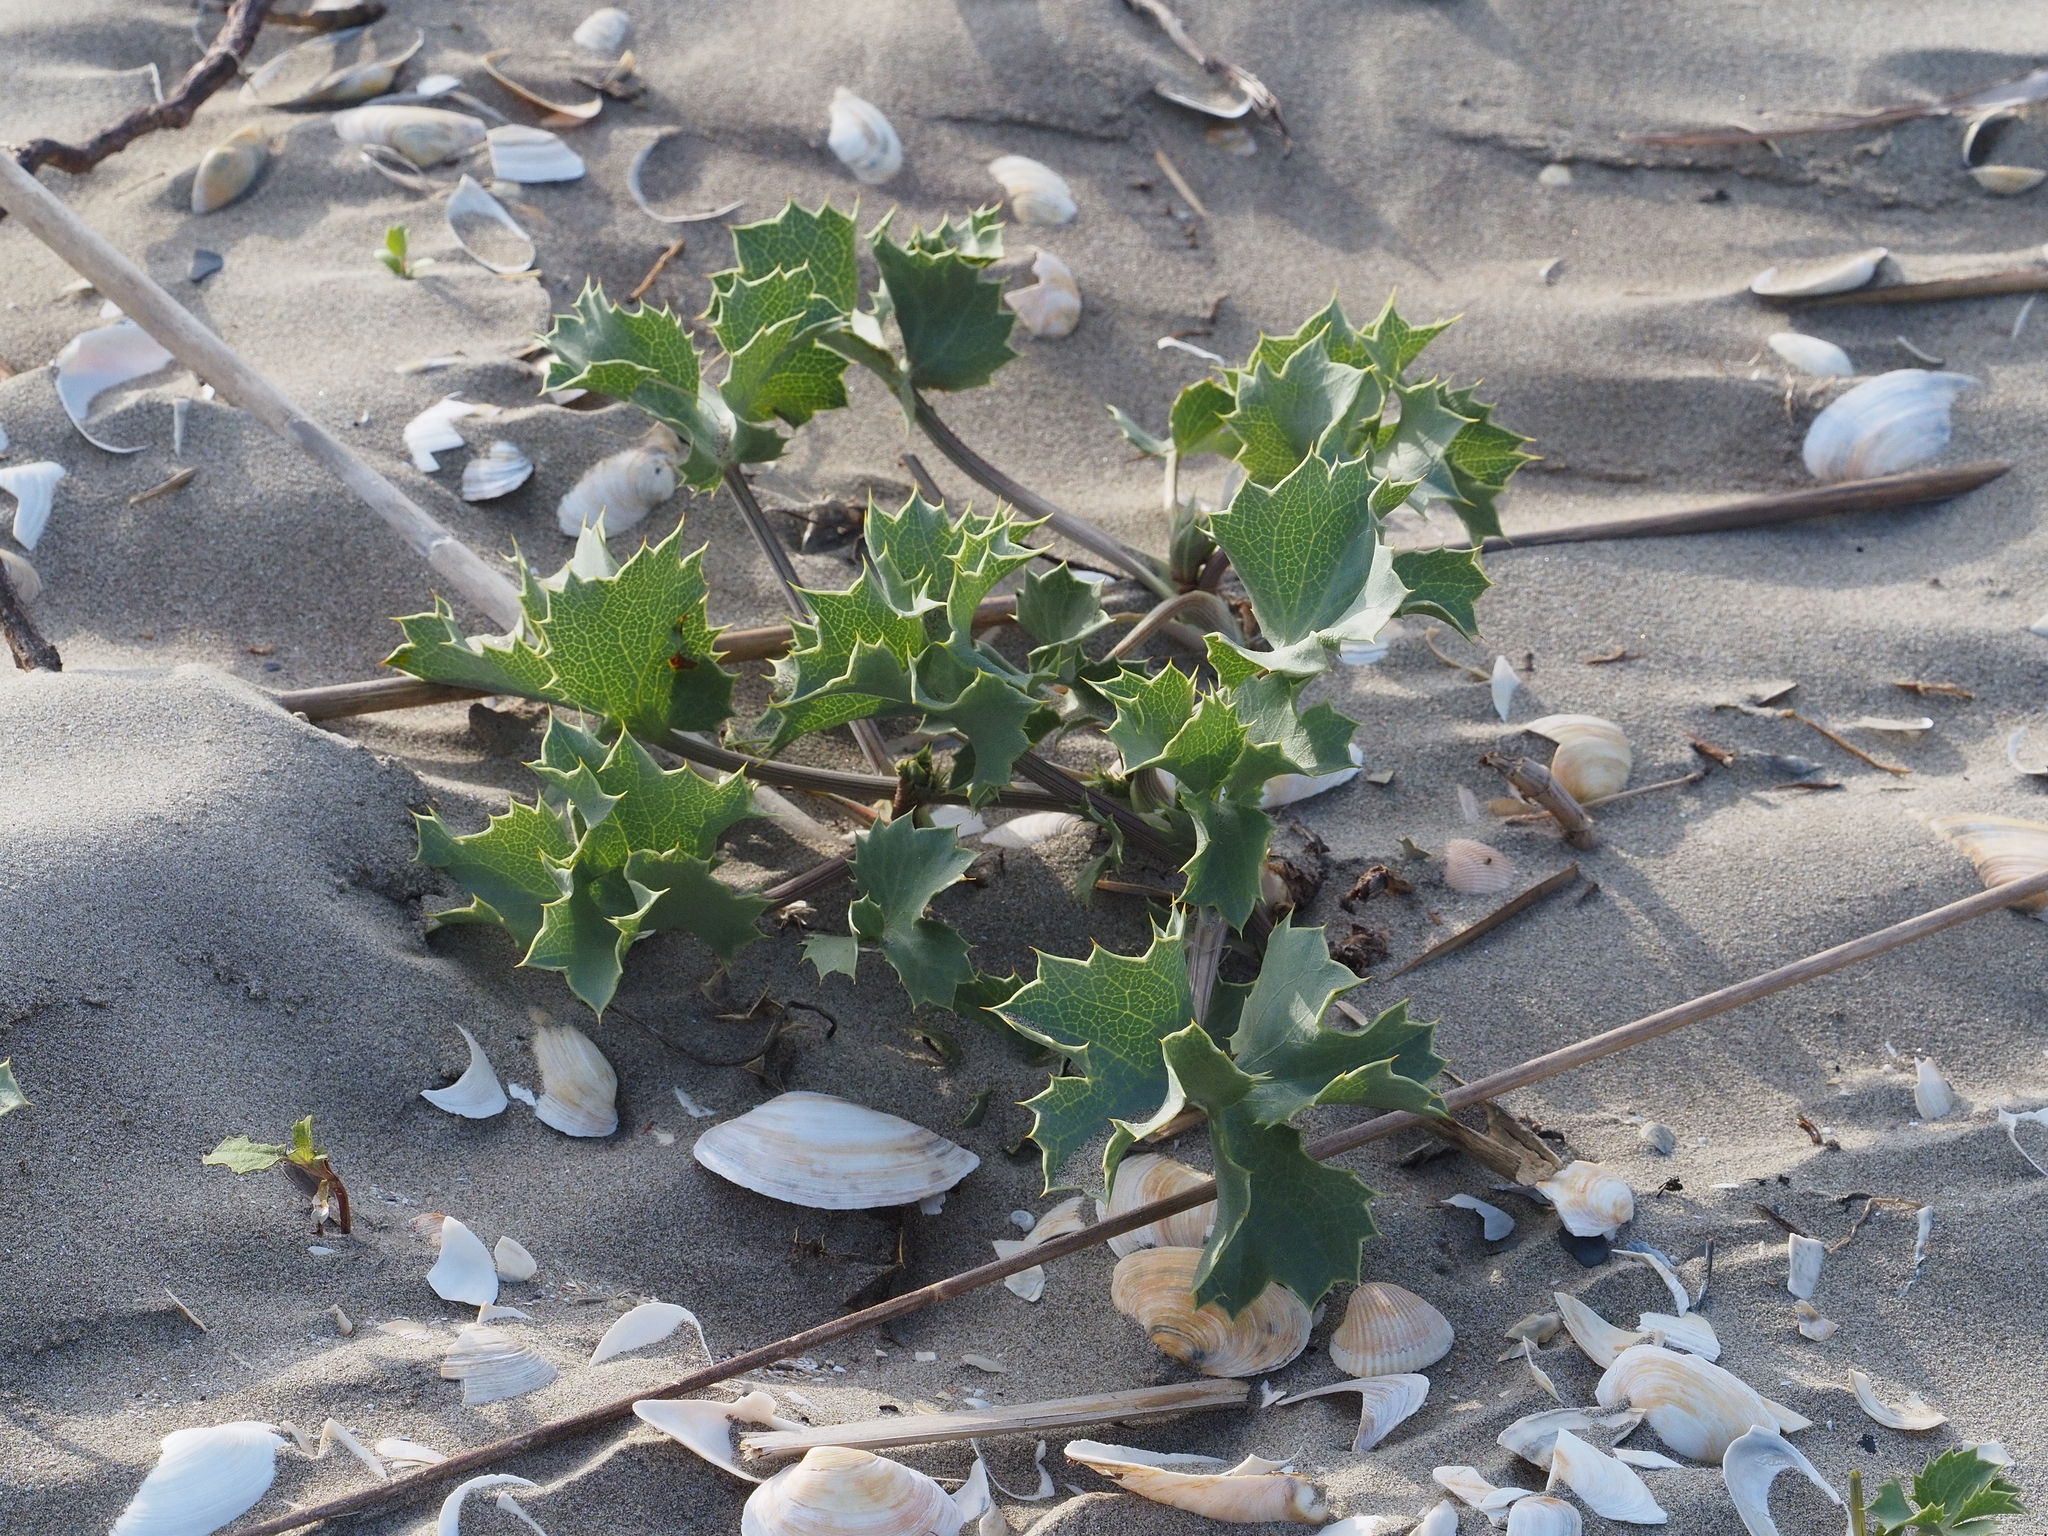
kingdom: Plantae
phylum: Tracheophyta
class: Magnoliopsida
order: Apiales
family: Apiaceae
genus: Eryngium
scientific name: Eryngium maritimum
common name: Sea-holly
